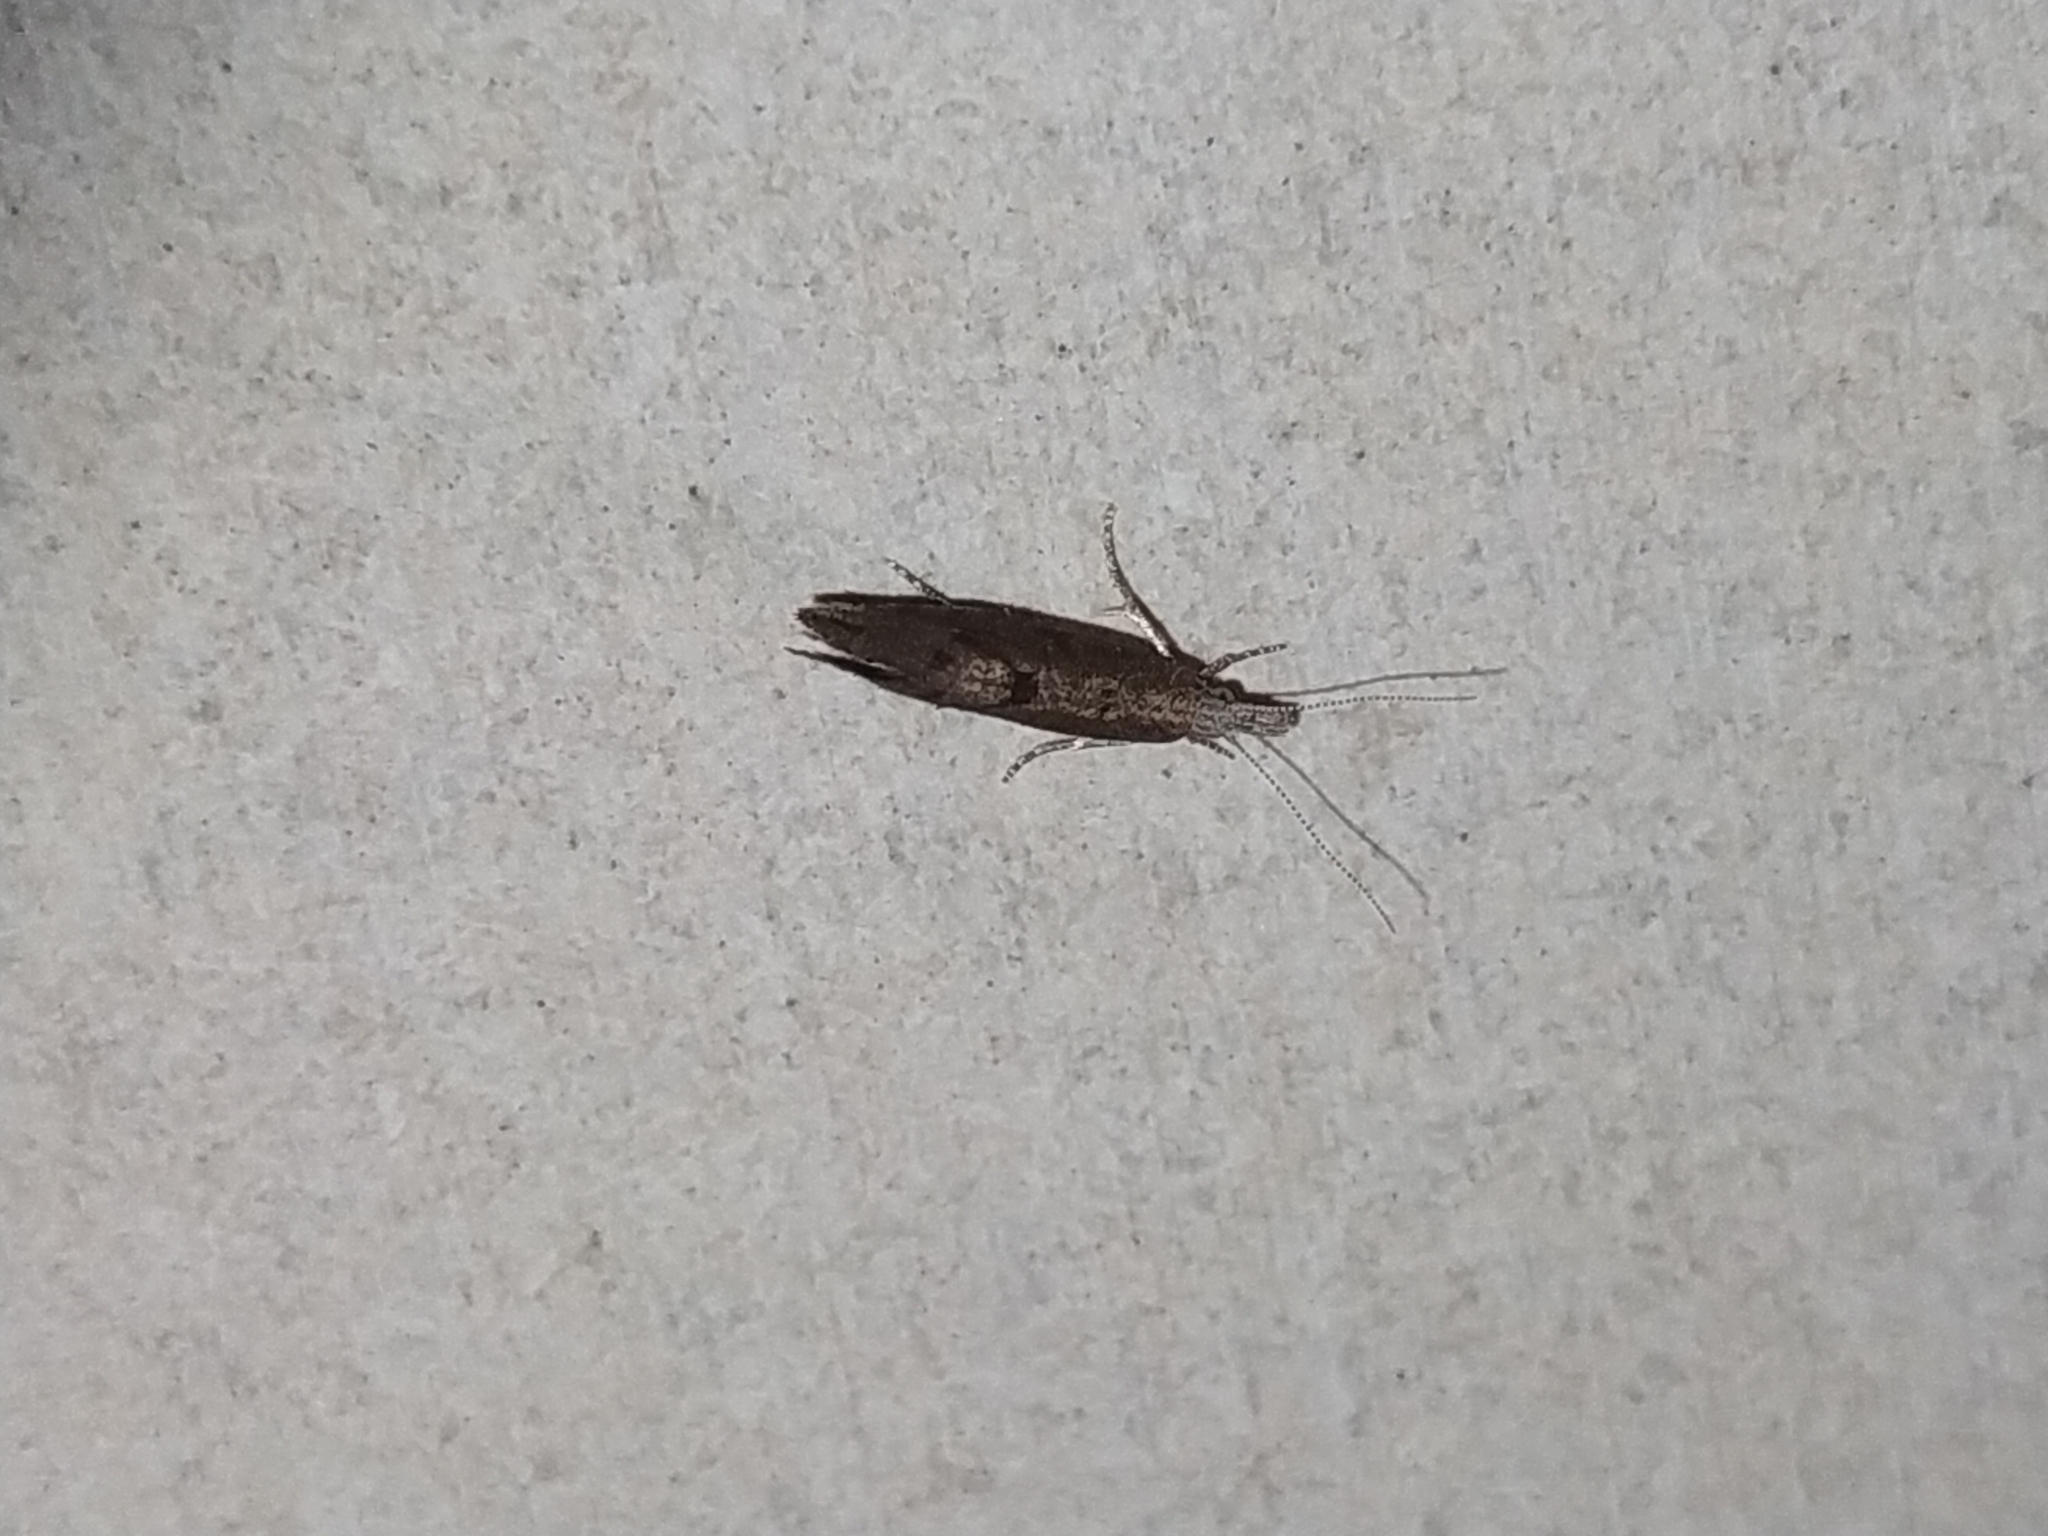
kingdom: Animalia
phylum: Arthropoda
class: Insecta
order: Lepidoptera
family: Ypsolophidae
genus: Ypsolopha
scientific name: Ypsolopha chazariella
